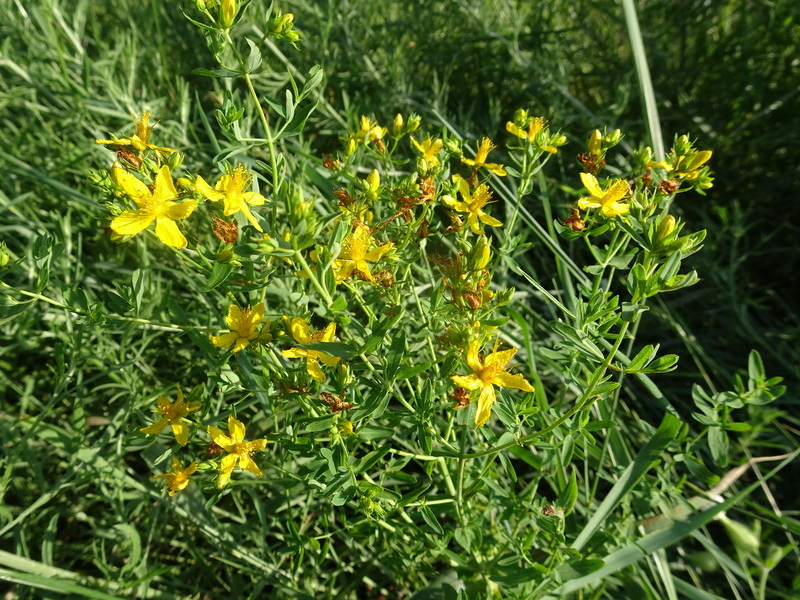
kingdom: Plantae
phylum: Tracheophyta
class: Magnoliopsida
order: Malpighiales
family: Hypericaceae
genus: Hypericum
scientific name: Hypericum perforatum
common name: Common st. johnswort
